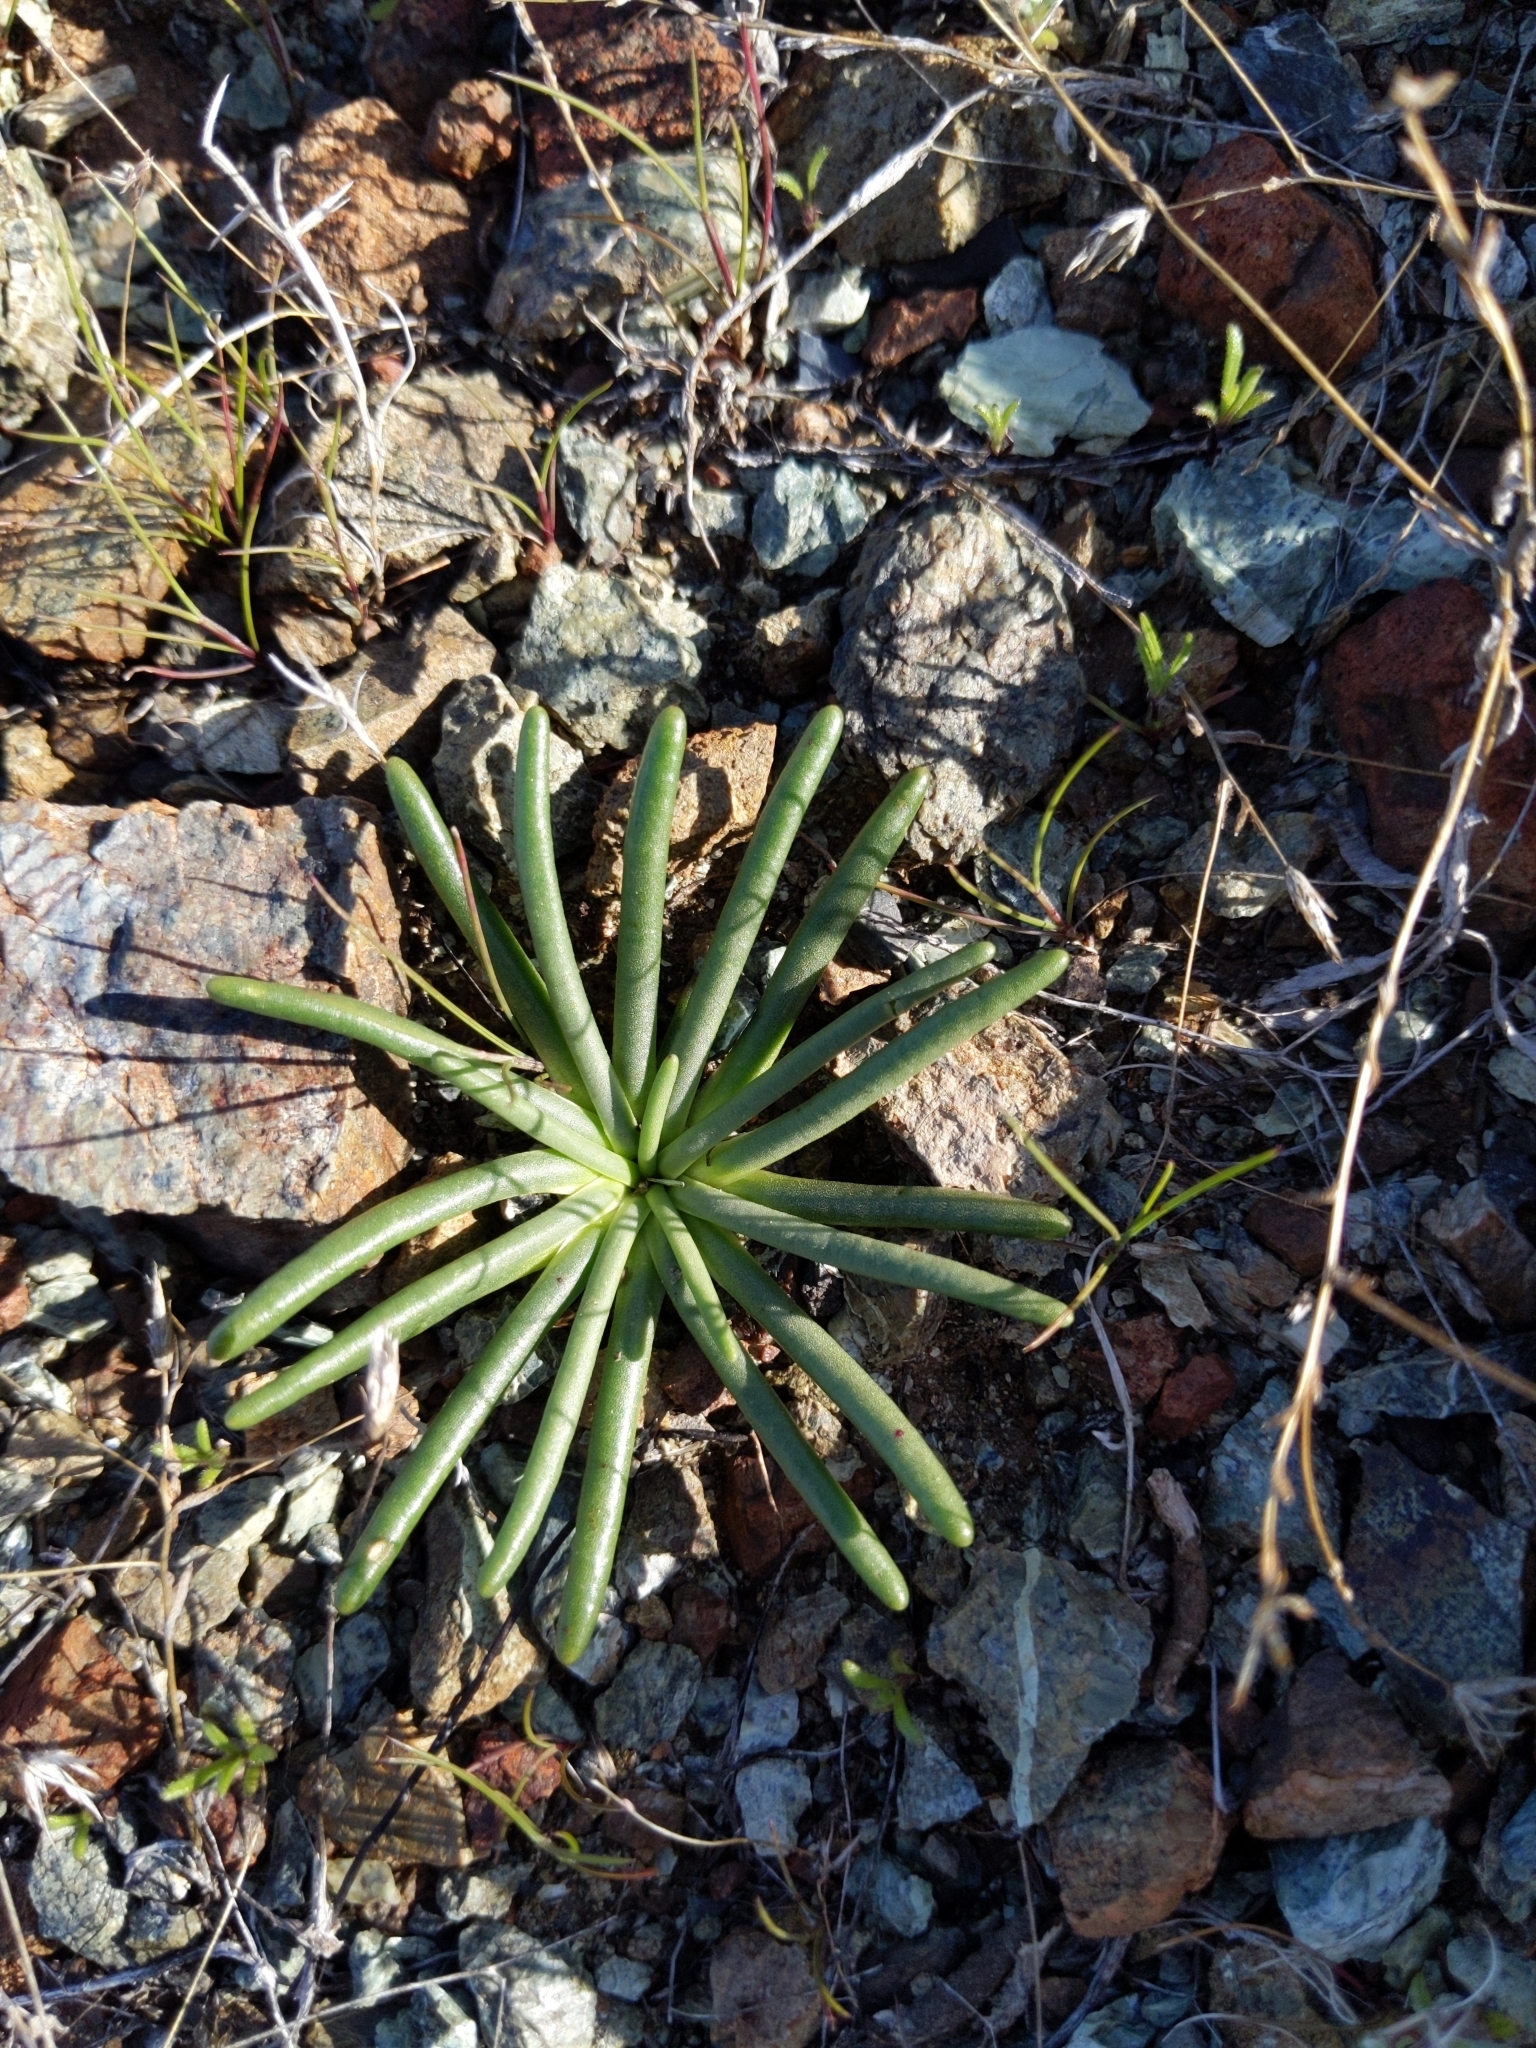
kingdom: Plantae
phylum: Tracheophyta
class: Magnoliopsida
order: Caryophyllales
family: Montiaceae
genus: Lewisia
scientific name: Lewisia rediviva
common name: Bitter-root
